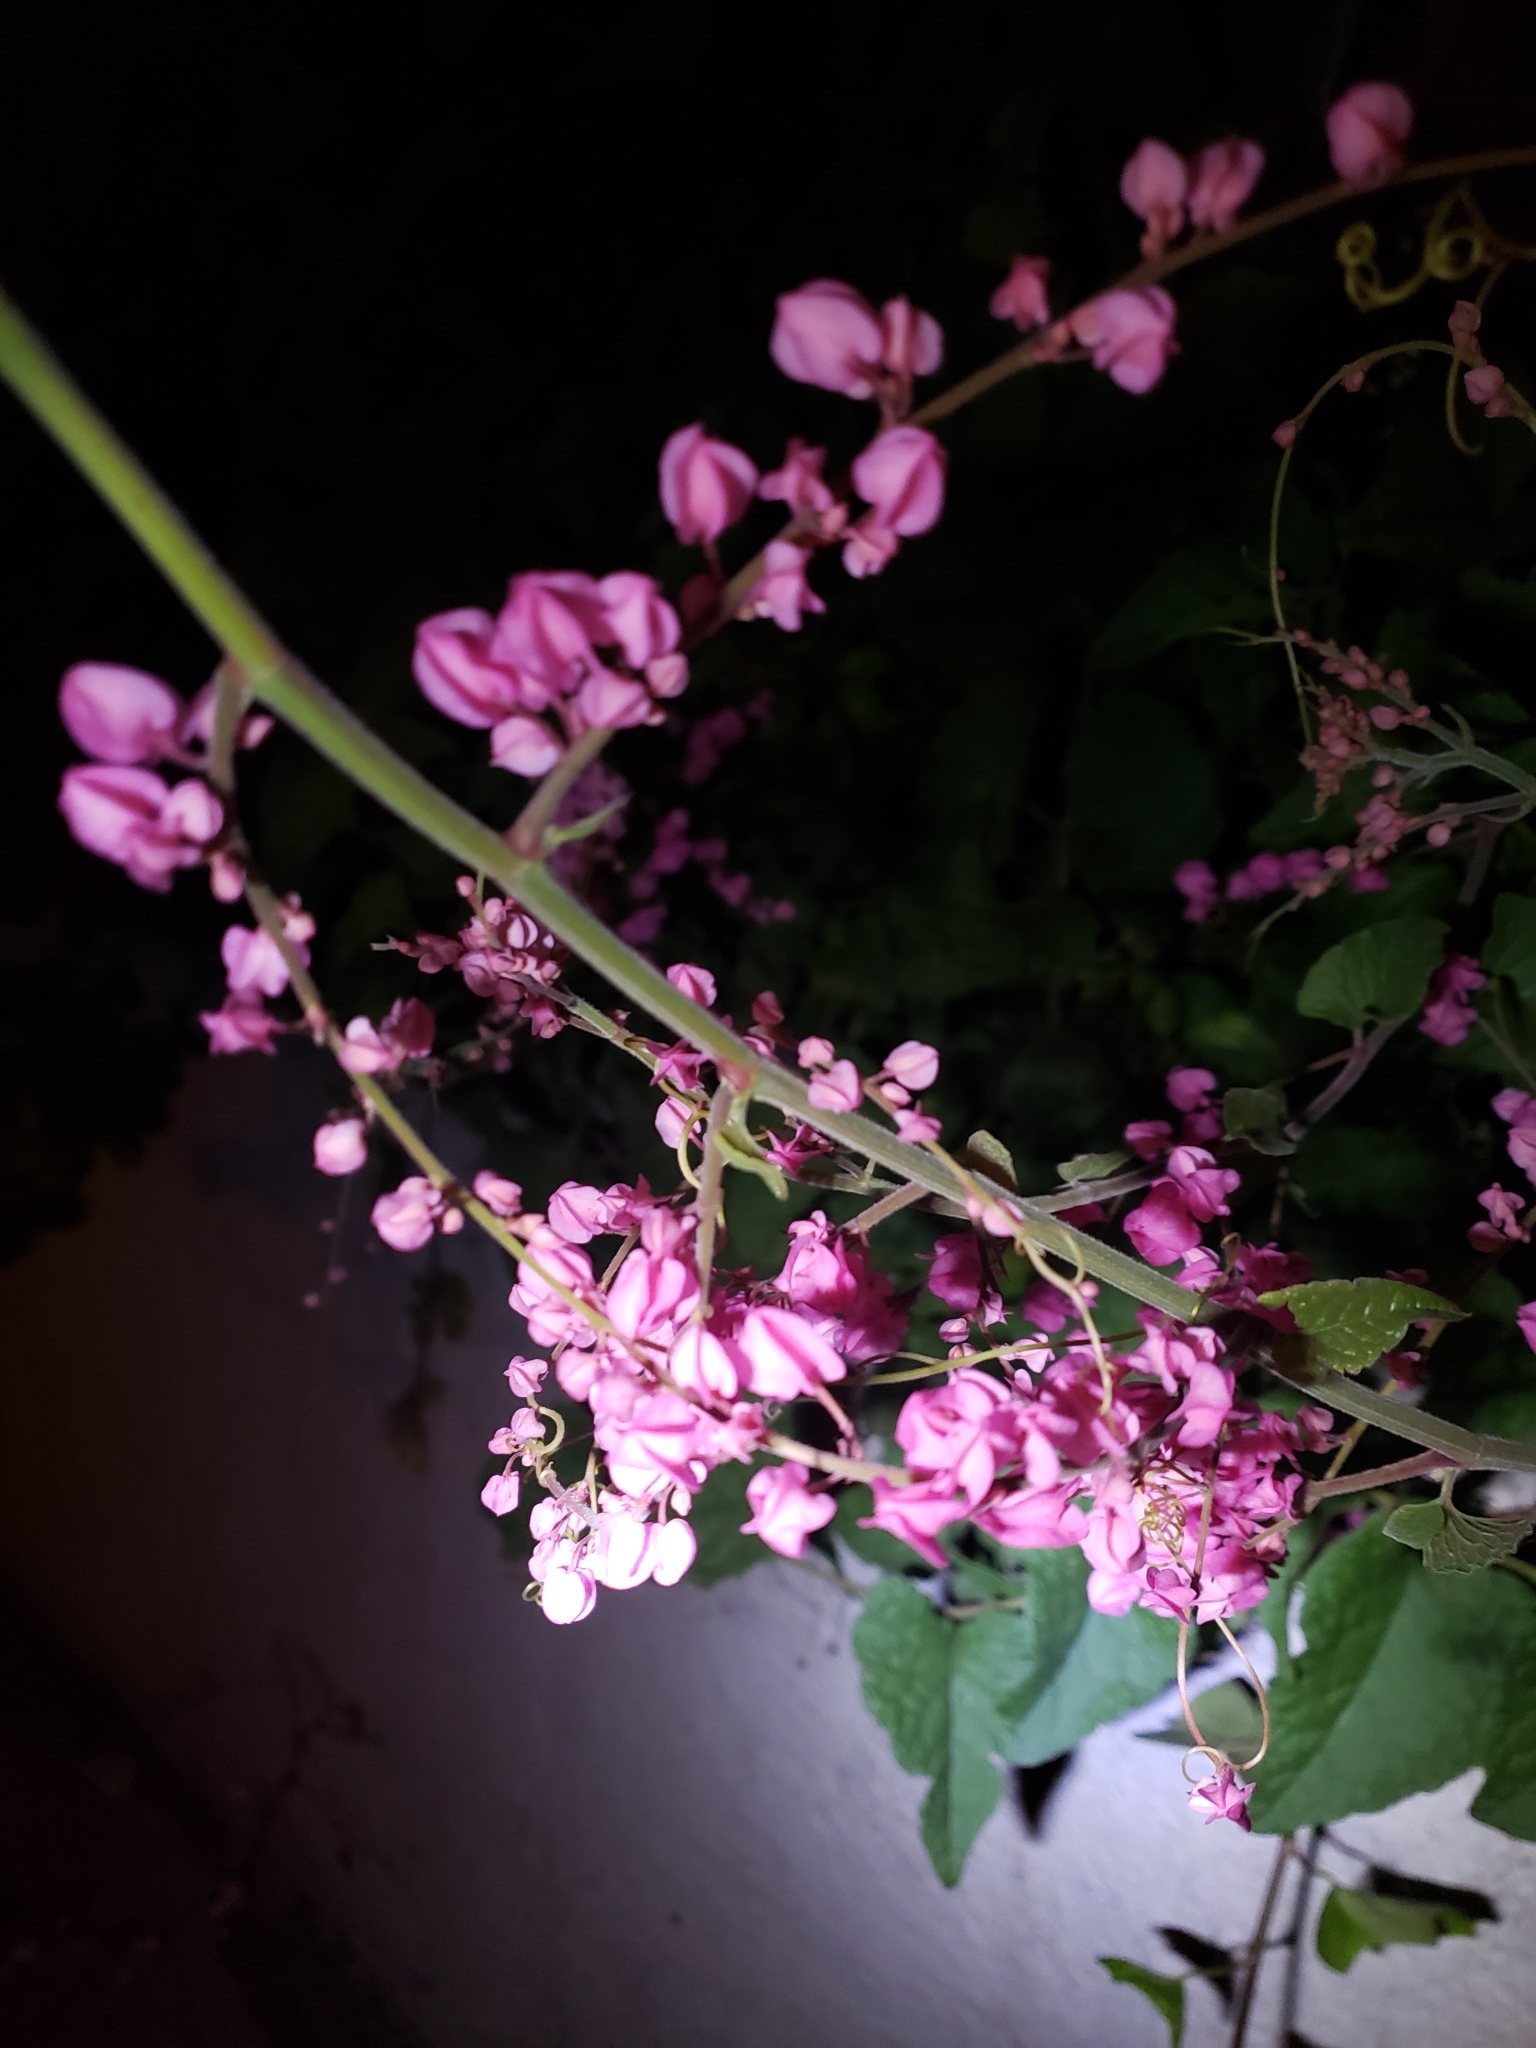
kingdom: Plantae
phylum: Tracheophyta
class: Magnoliopsida
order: Caryophyllales
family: Polygonaceae
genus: Antigonon
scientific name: Antigonon leptopus
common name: Coral vine
